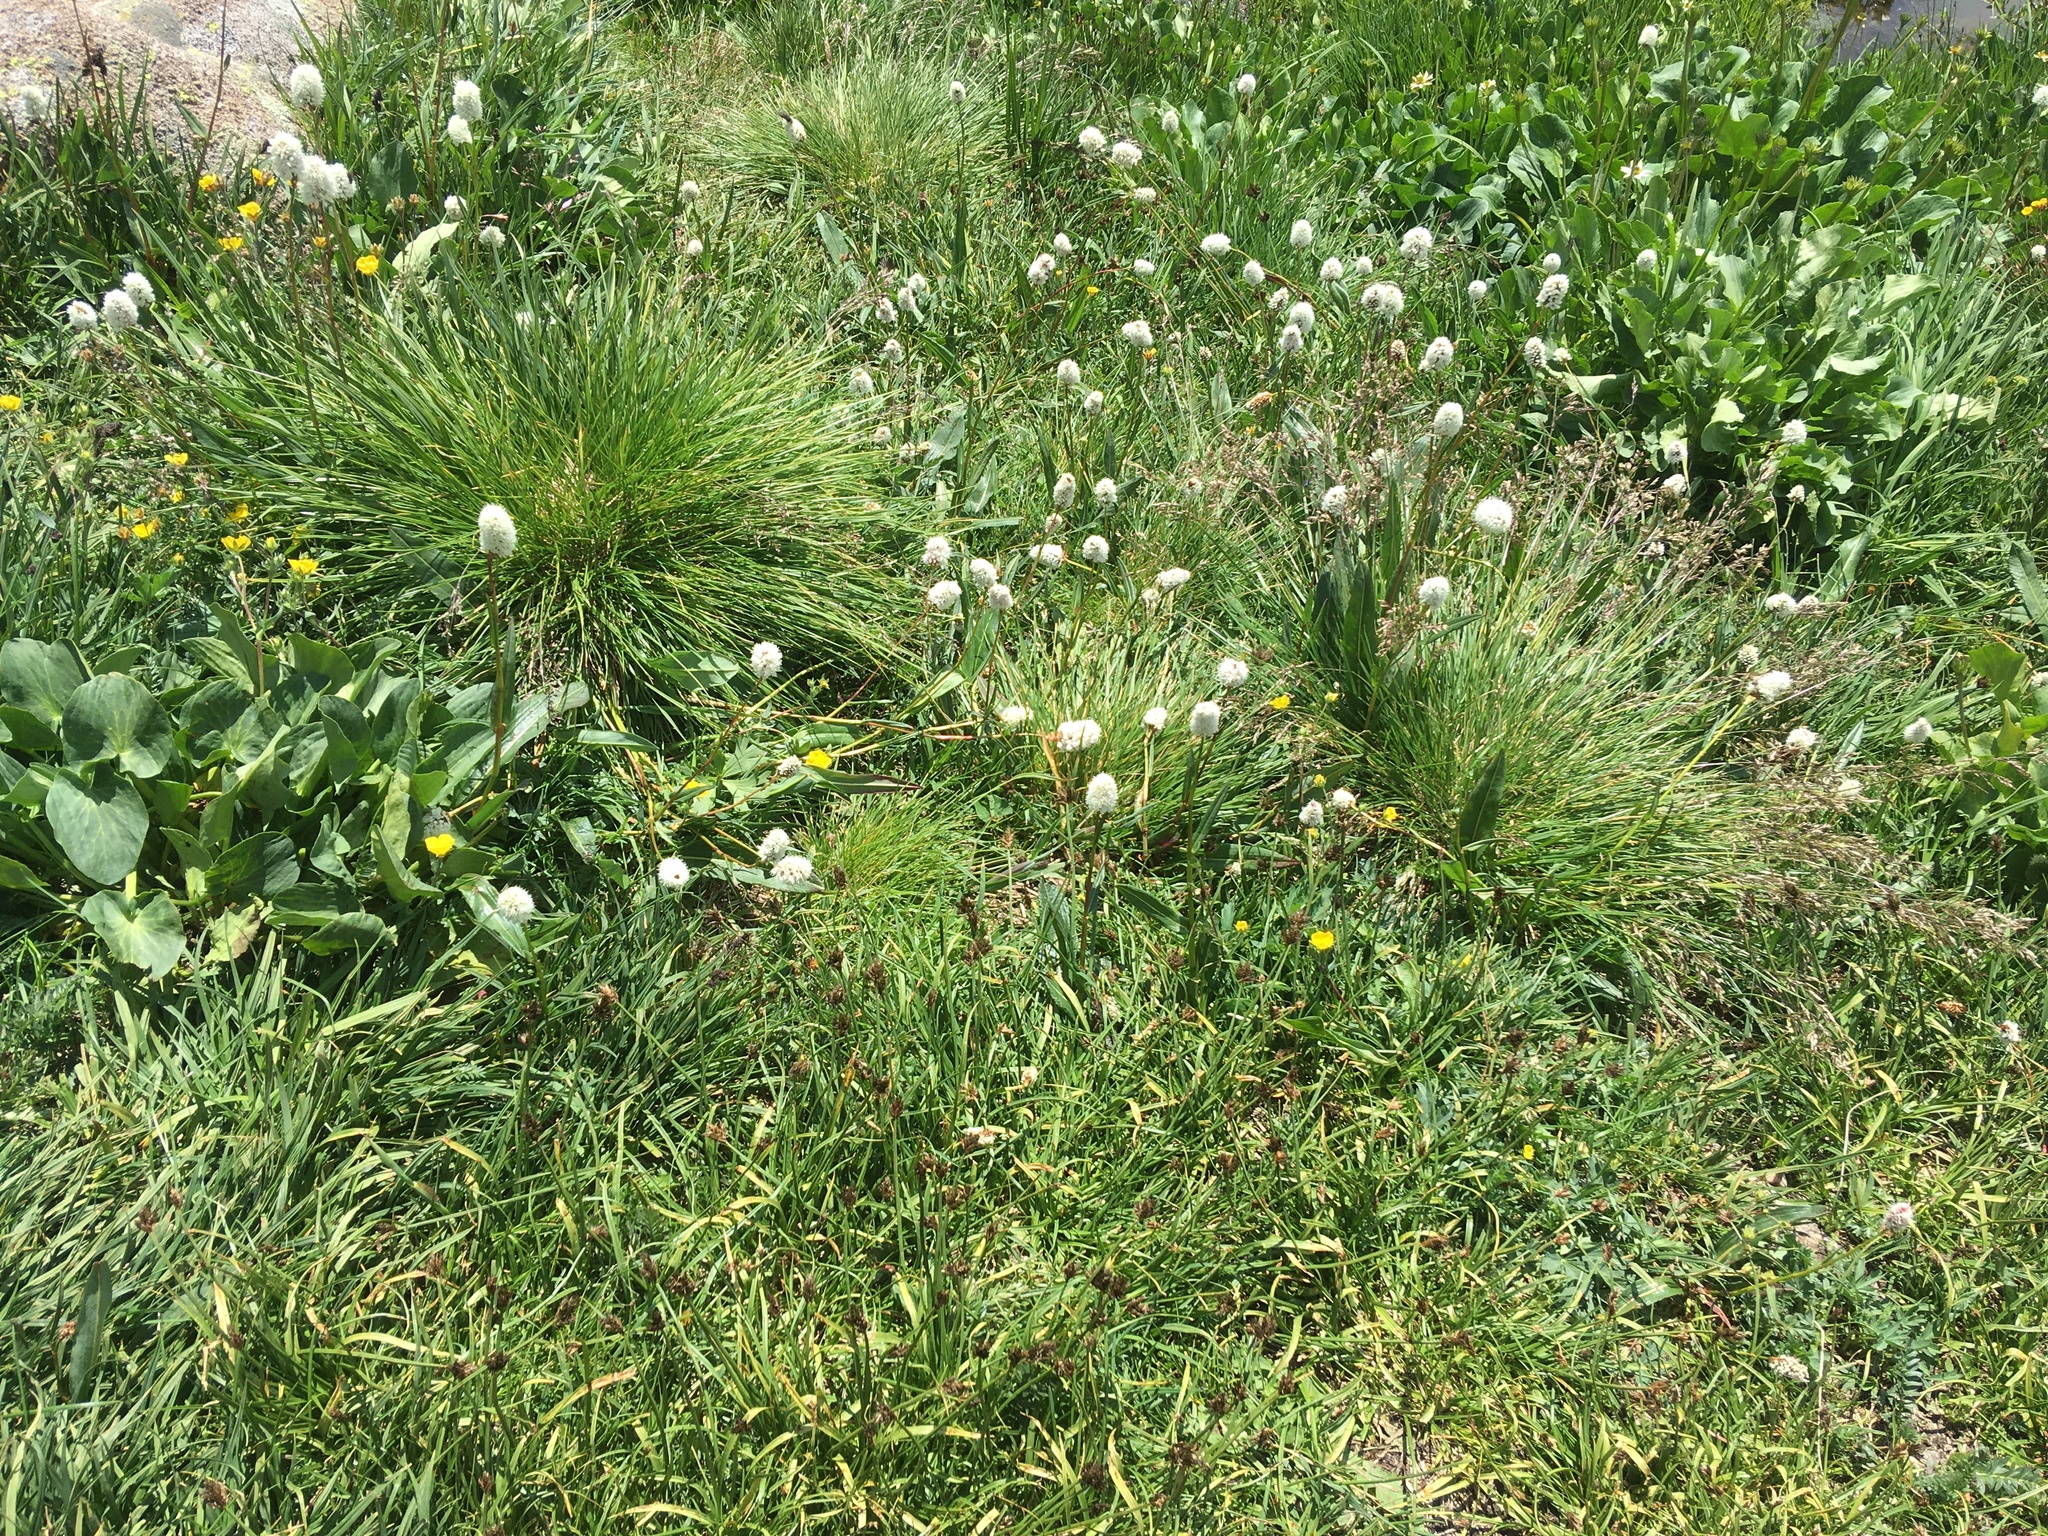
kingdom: Plantae
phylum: Tracheophyta
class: Magnoliopsida
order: Caryophyllales
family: Polygonaceae
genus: Bistorta
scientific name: Bistorta bistortoides
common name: American bistort
